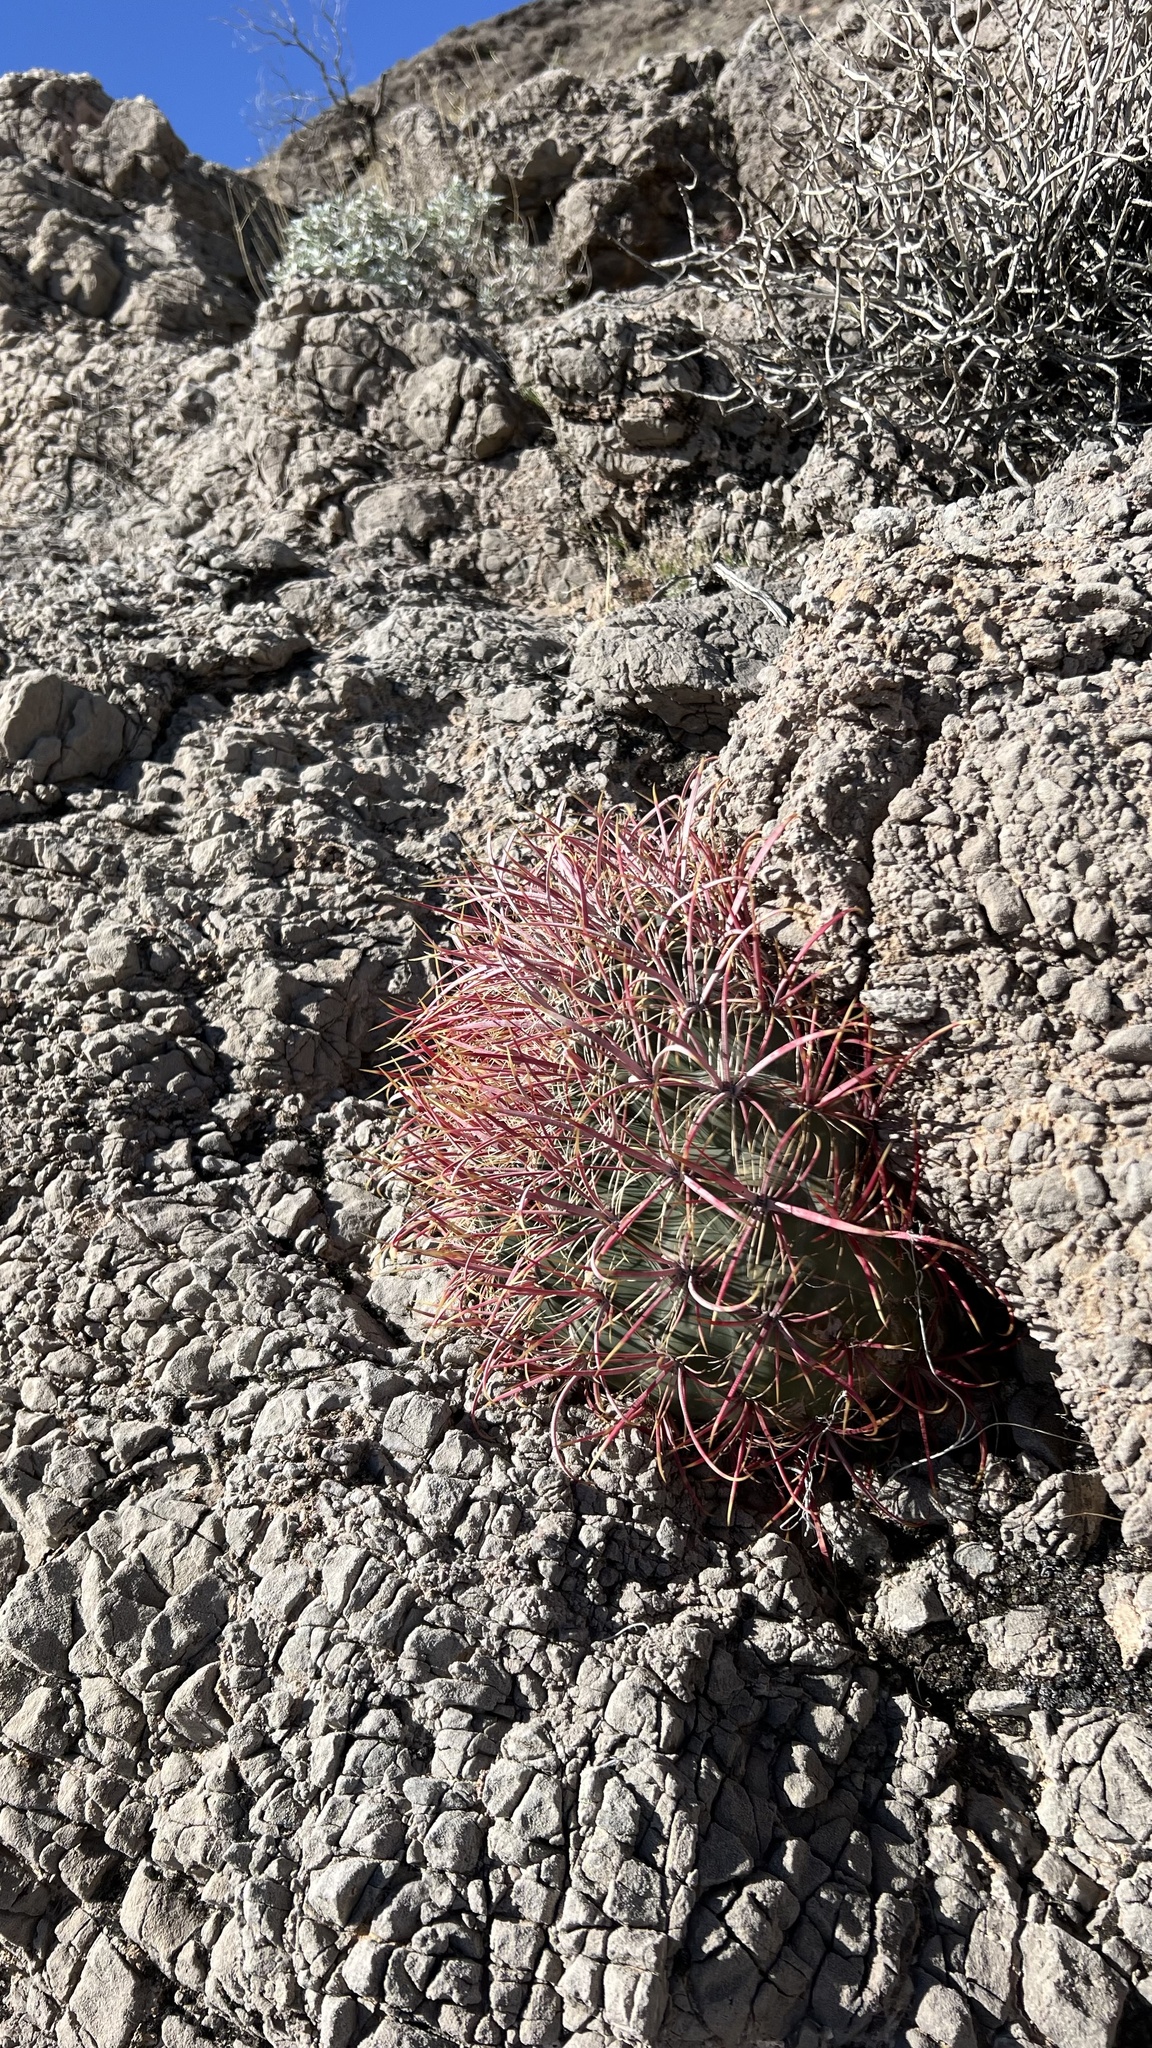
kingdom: Plantae
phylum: Tracheophyta
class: Magnoliopsida
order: Caryophyllales
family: Cactaceae
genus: Ferocactus
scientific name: Ferocactus cylindraceus
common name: California barrel cactus
